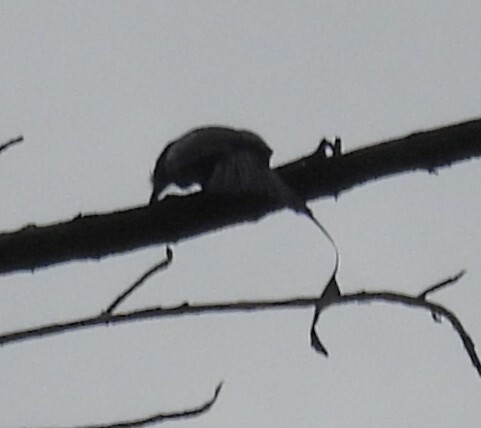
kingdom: Animalia
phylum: Chordata
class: Aves
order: Passeriformes
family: Dicruridae
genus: Dicrurus
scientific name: Dicrurus paradiseus
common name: Greater racket-tailed drongo
